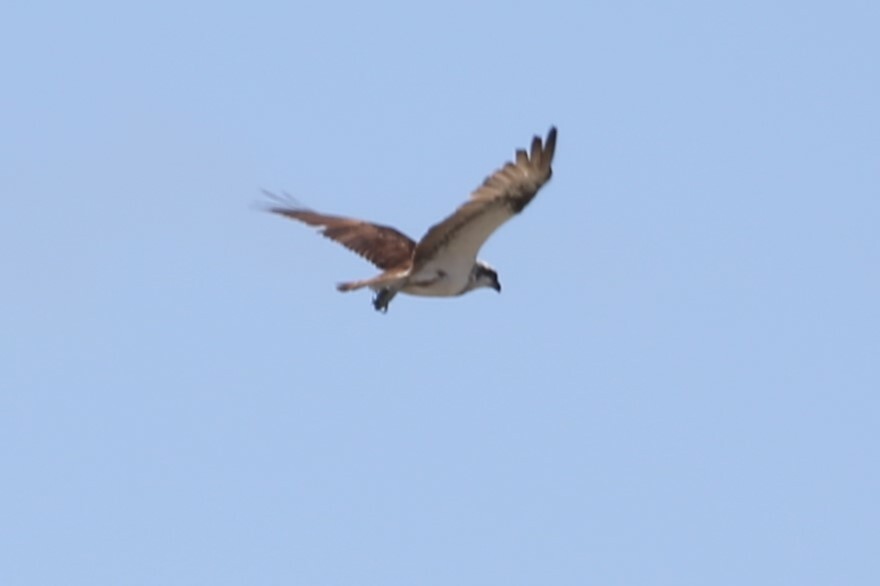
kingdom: Animalia
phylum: Chordata
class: Aves
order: Accipitriformes
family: Pandionidae
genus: Pandion
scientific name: Pandion haliaetus
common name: Osprey
